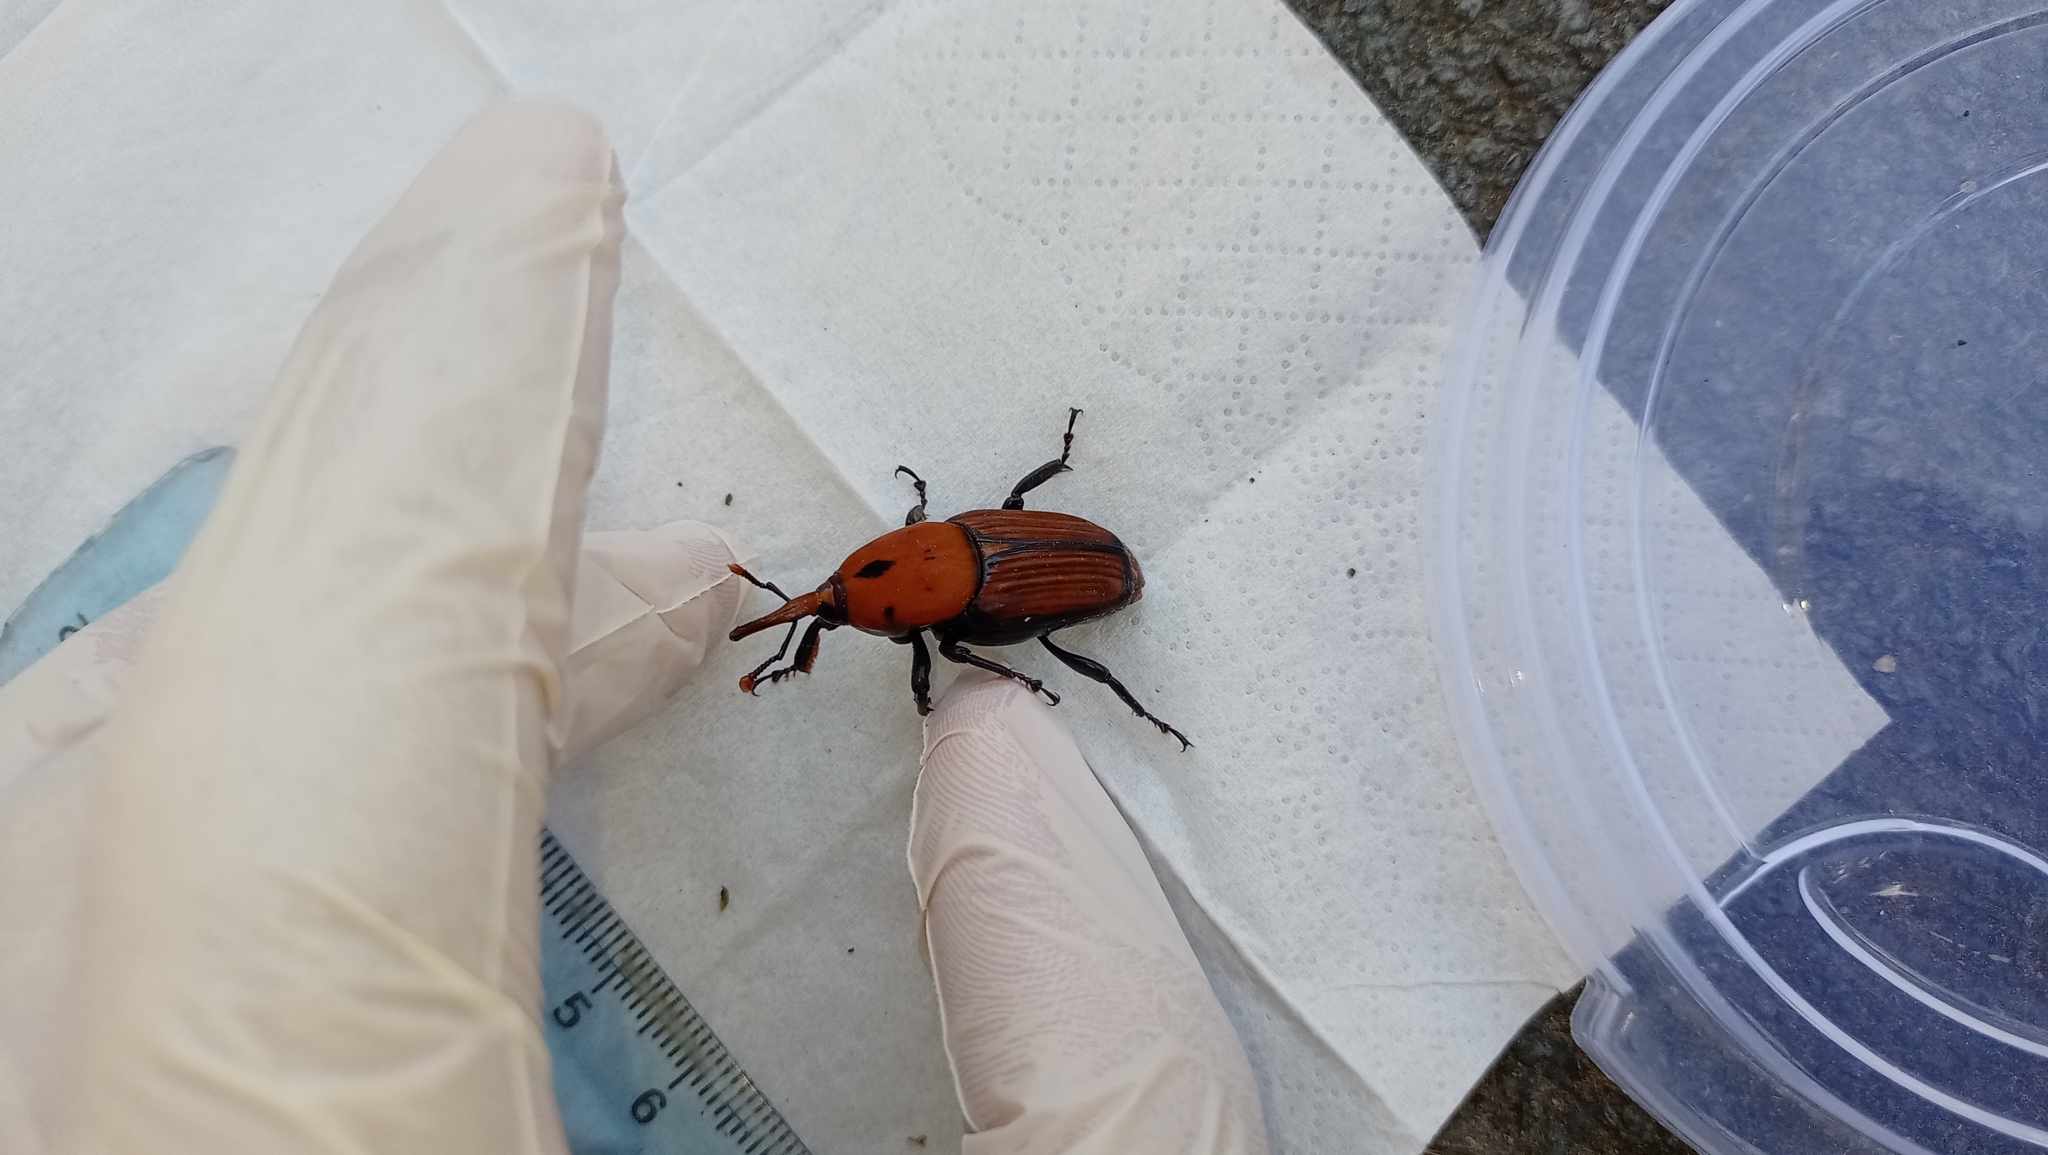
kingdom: Animalia
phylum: Arthropoda
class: Insecta
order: Coleoptera
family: Dryophthoridae
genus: Rhynchophorus
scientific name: Rhynchophorus ferrugineus
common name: Red palm weevil
